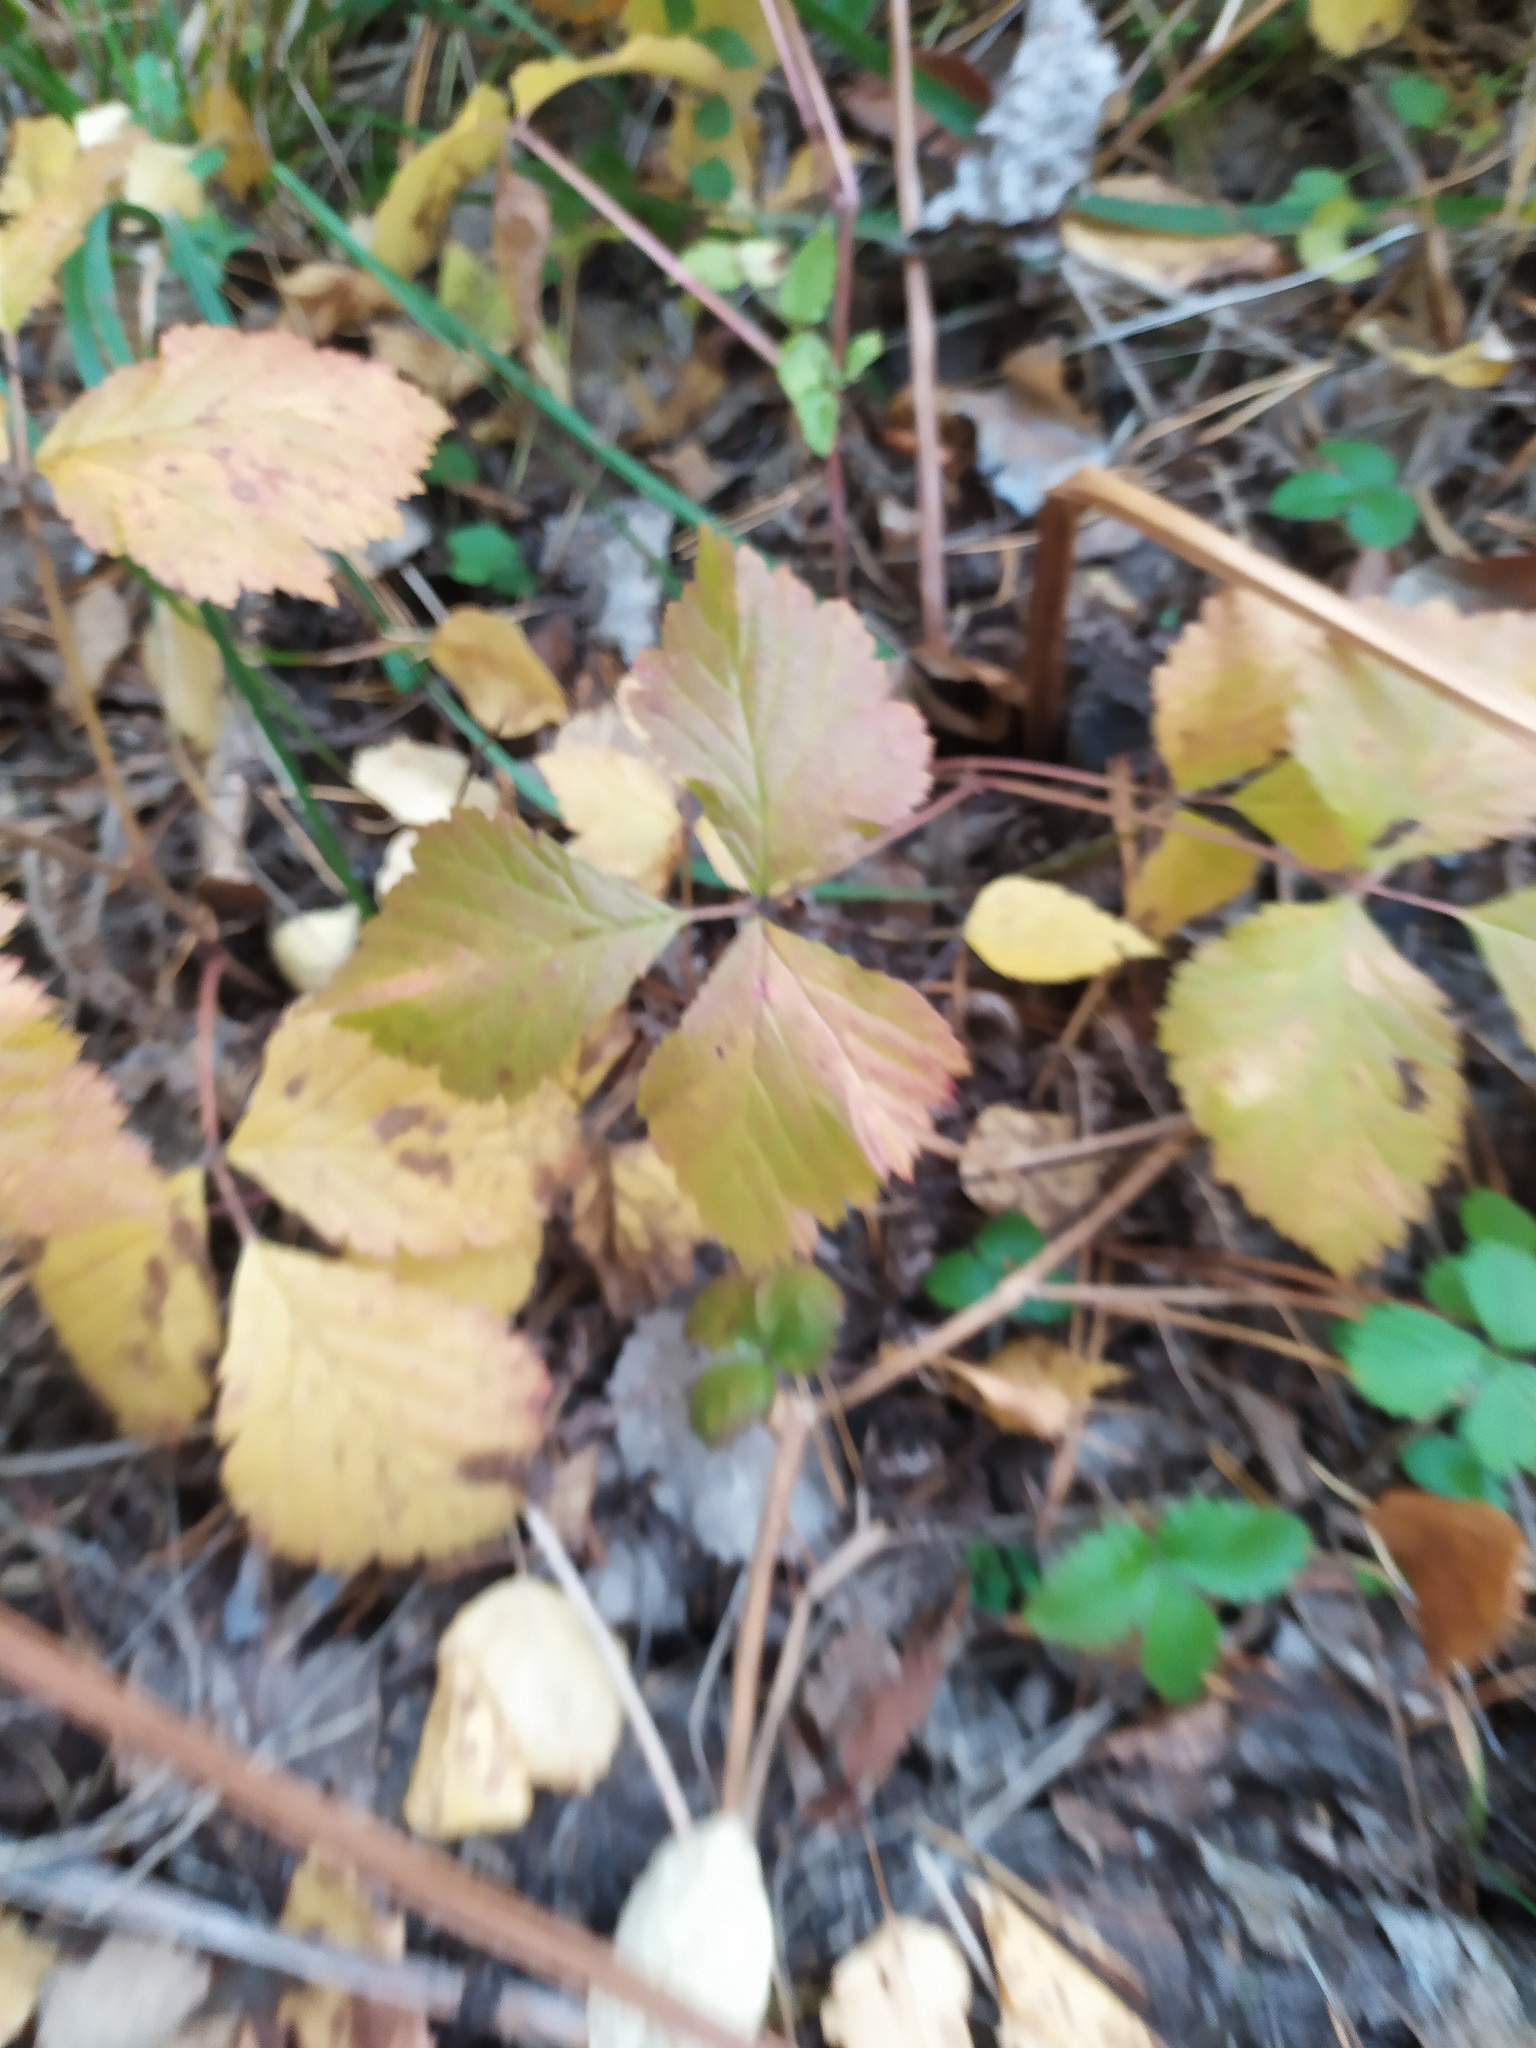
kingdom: Plantae
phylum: Tracheophyta
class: Magnoliopsida
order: Rosales
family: Rosaceae
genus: Rubus
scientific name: Rubus saxatilis
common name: Stone bramble
